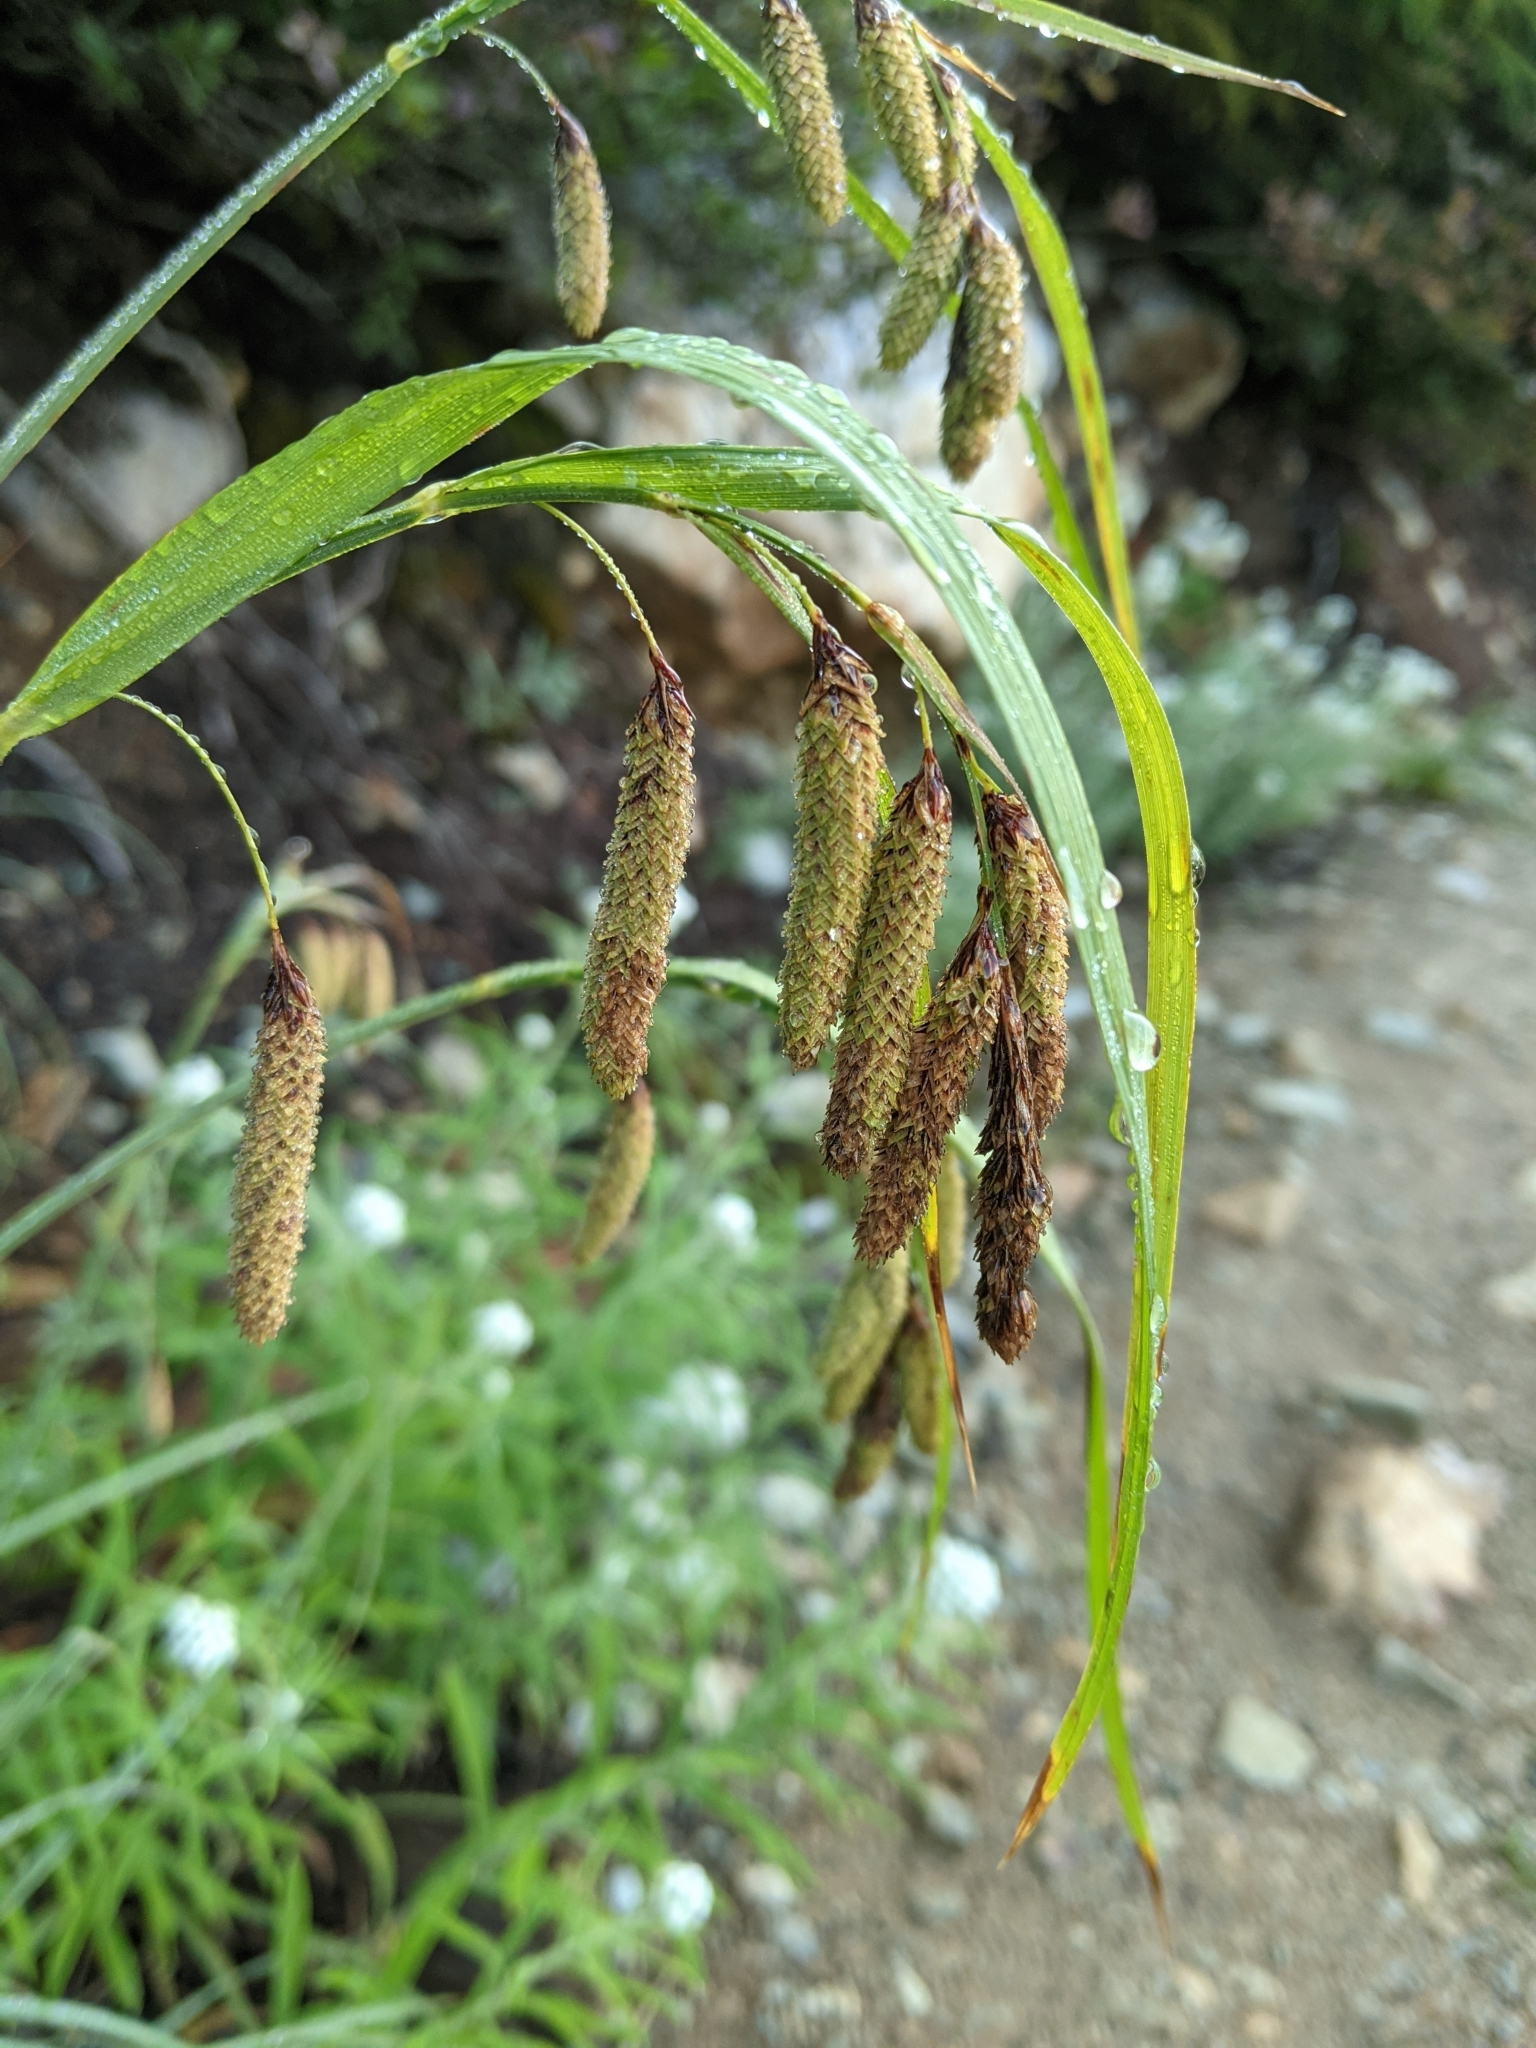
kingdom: Plantae
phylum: Tracheophyta
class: Liliopsida
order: Poales
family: Cyperaceae
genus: Carex
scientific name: Carex mertensii
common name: Mertens' sedge
